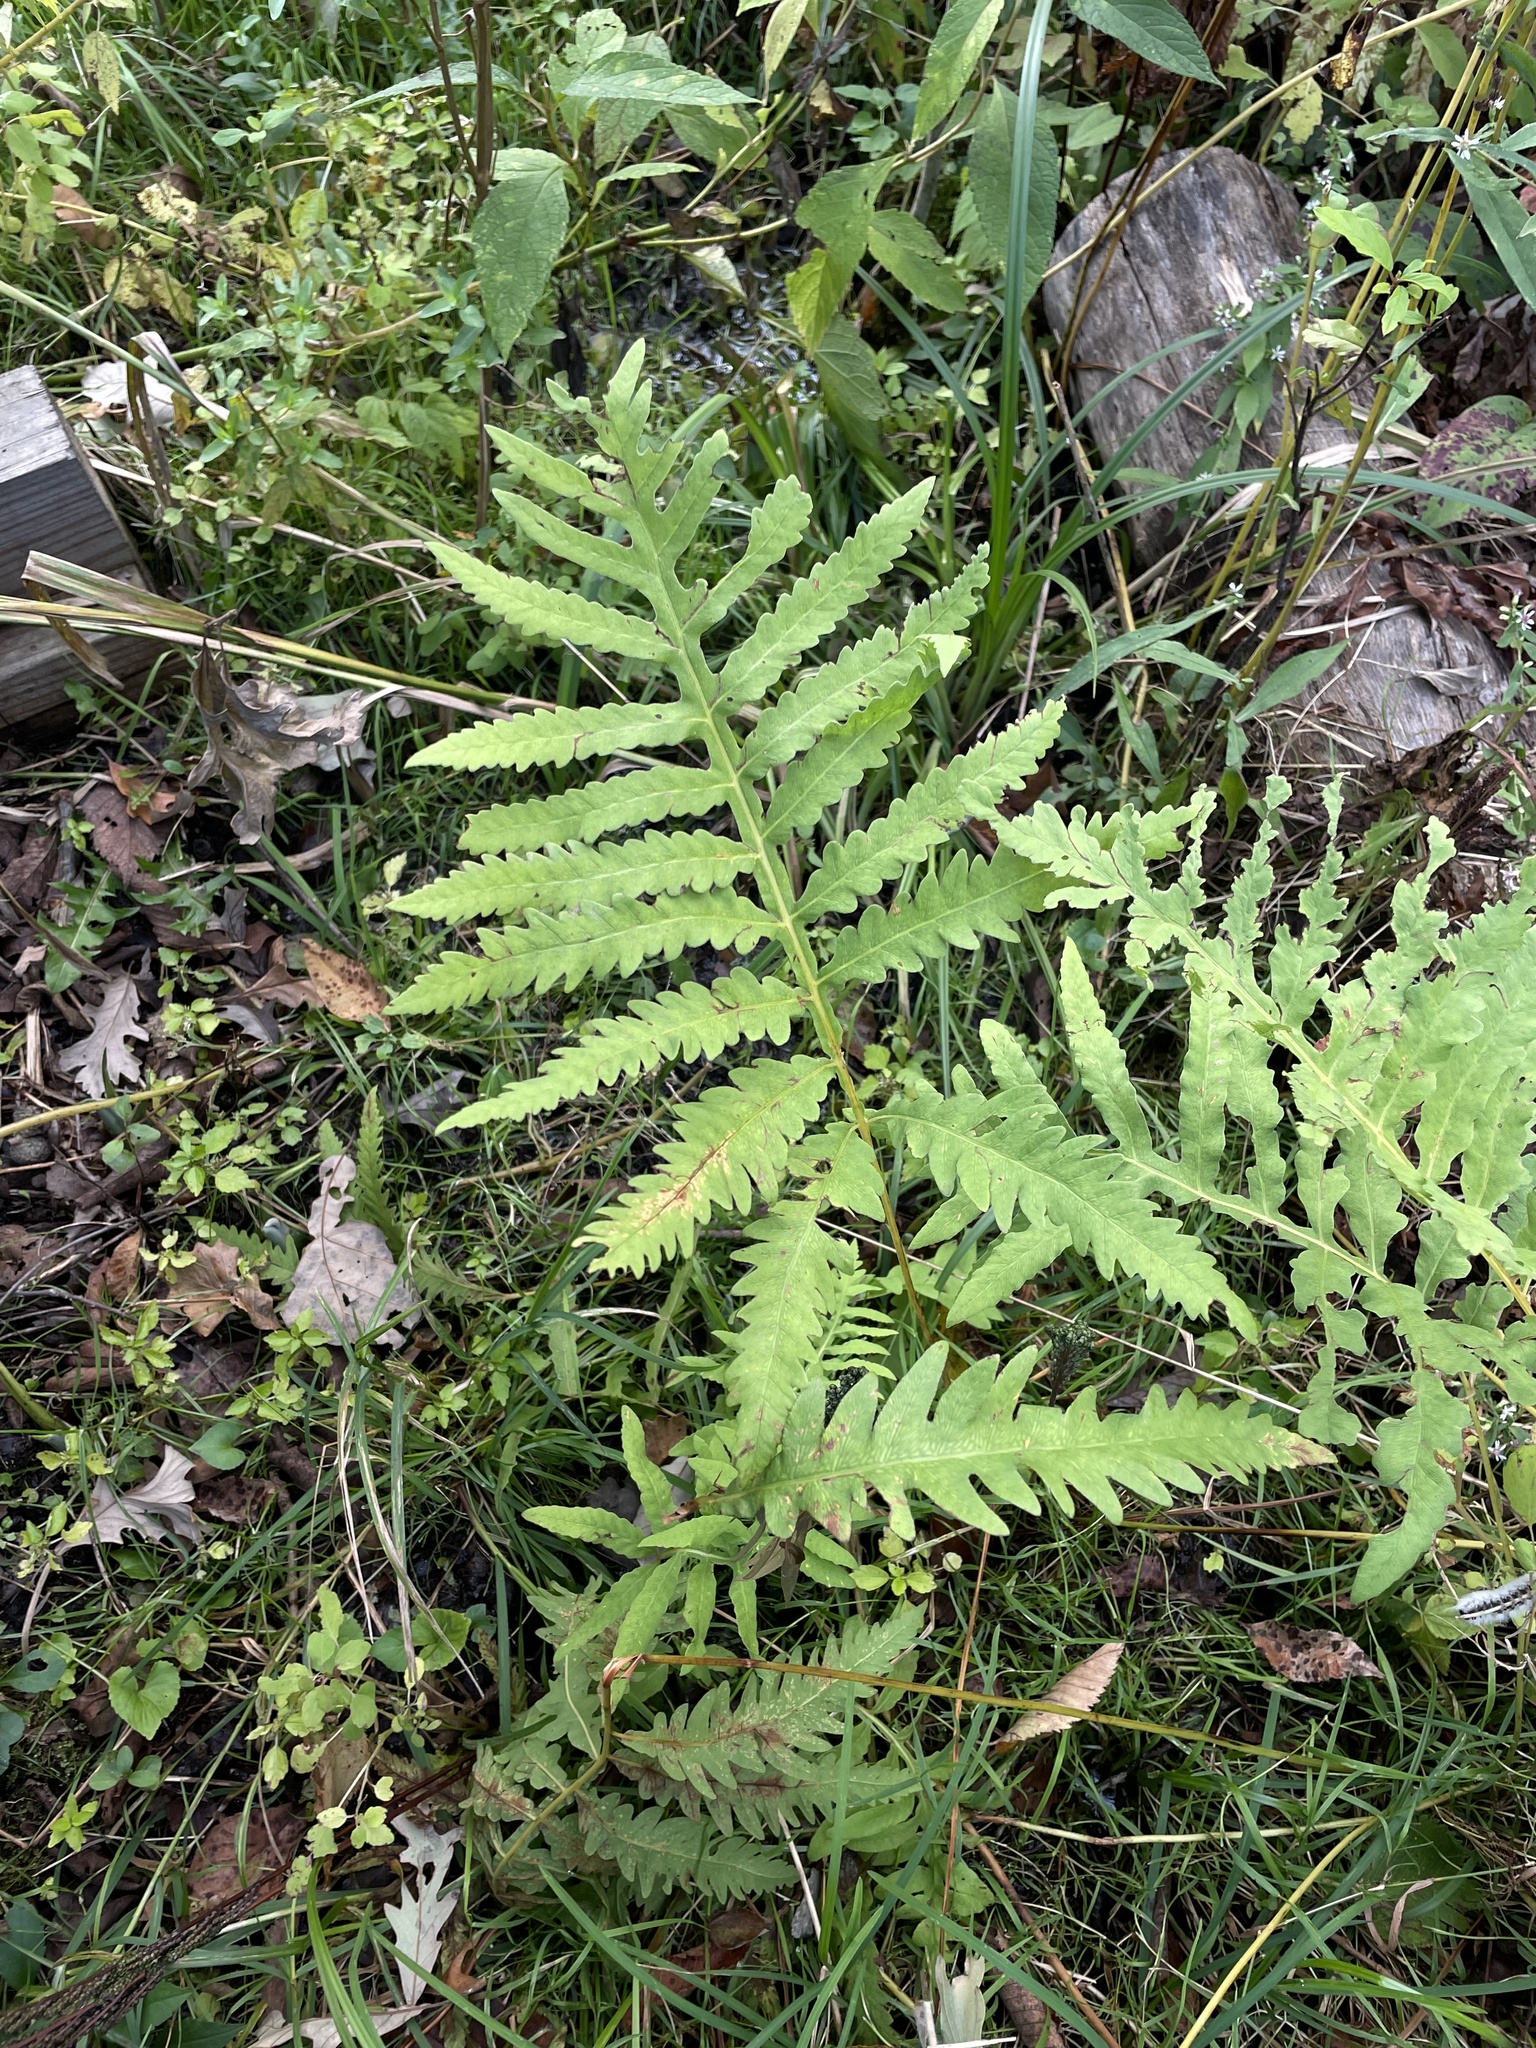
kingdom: Plantae
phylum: Tracheophyta
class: Polypodiopsida
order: Polypodiales
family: Onocleaceae
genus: Onoclea
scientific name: Onoclea sensibilis
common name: Sensitive fern
